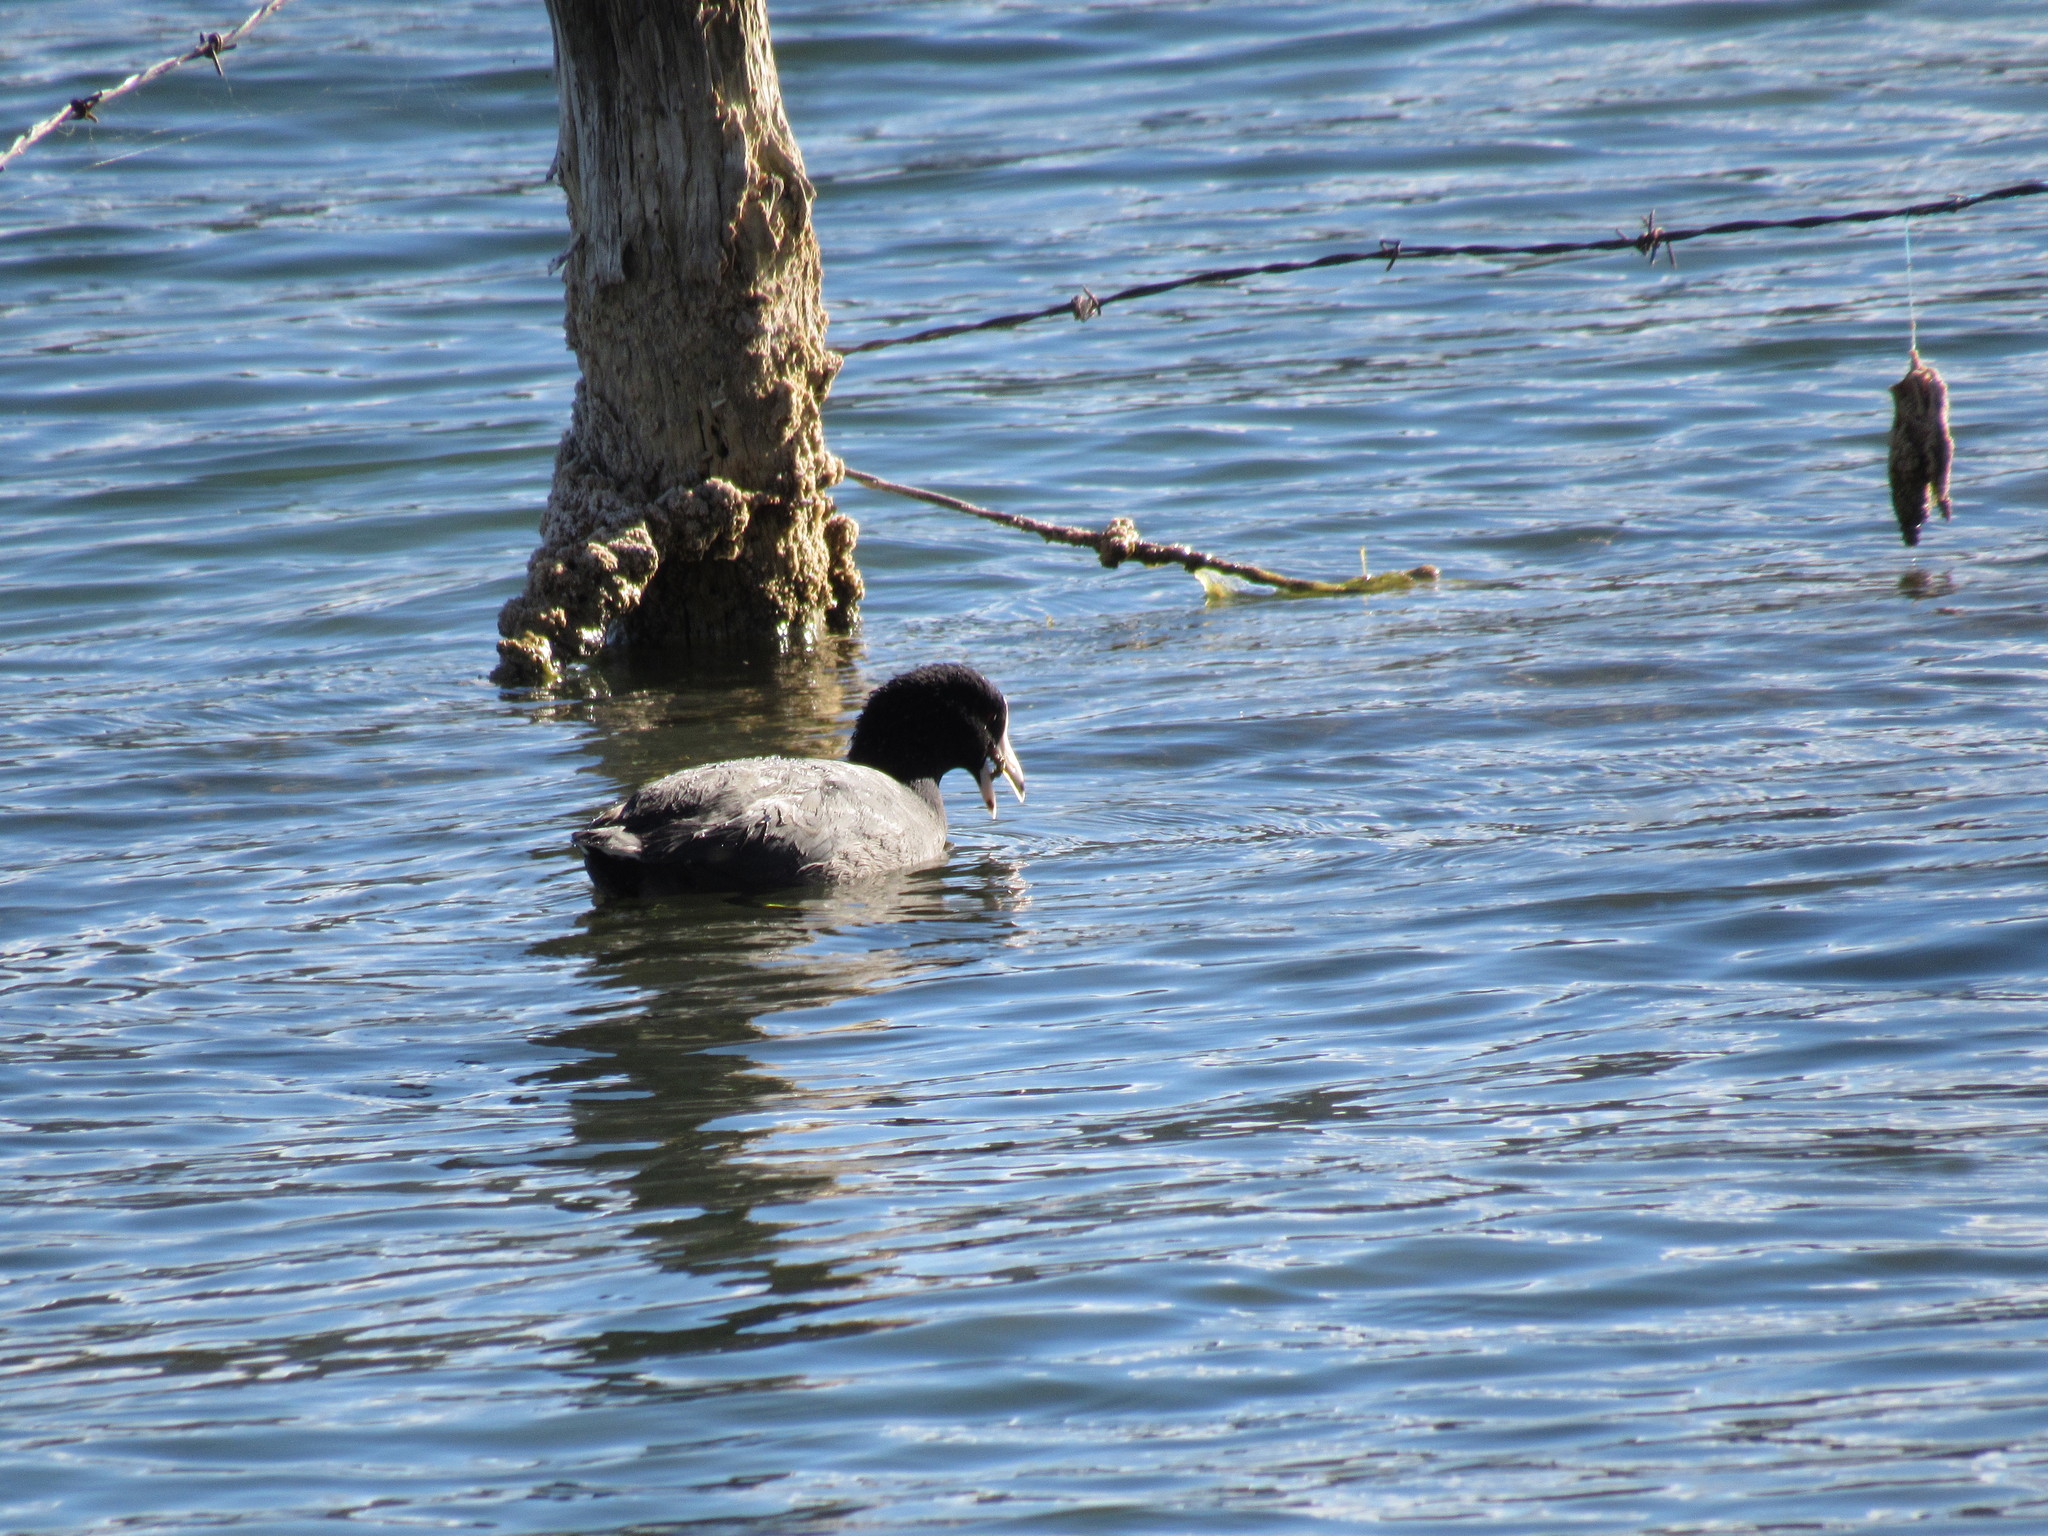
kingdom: Animalia
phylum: Chordata
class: Aves
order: Gruiformes
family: Rallidae
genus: Fulica
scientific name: Fulica americana
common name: American coot
